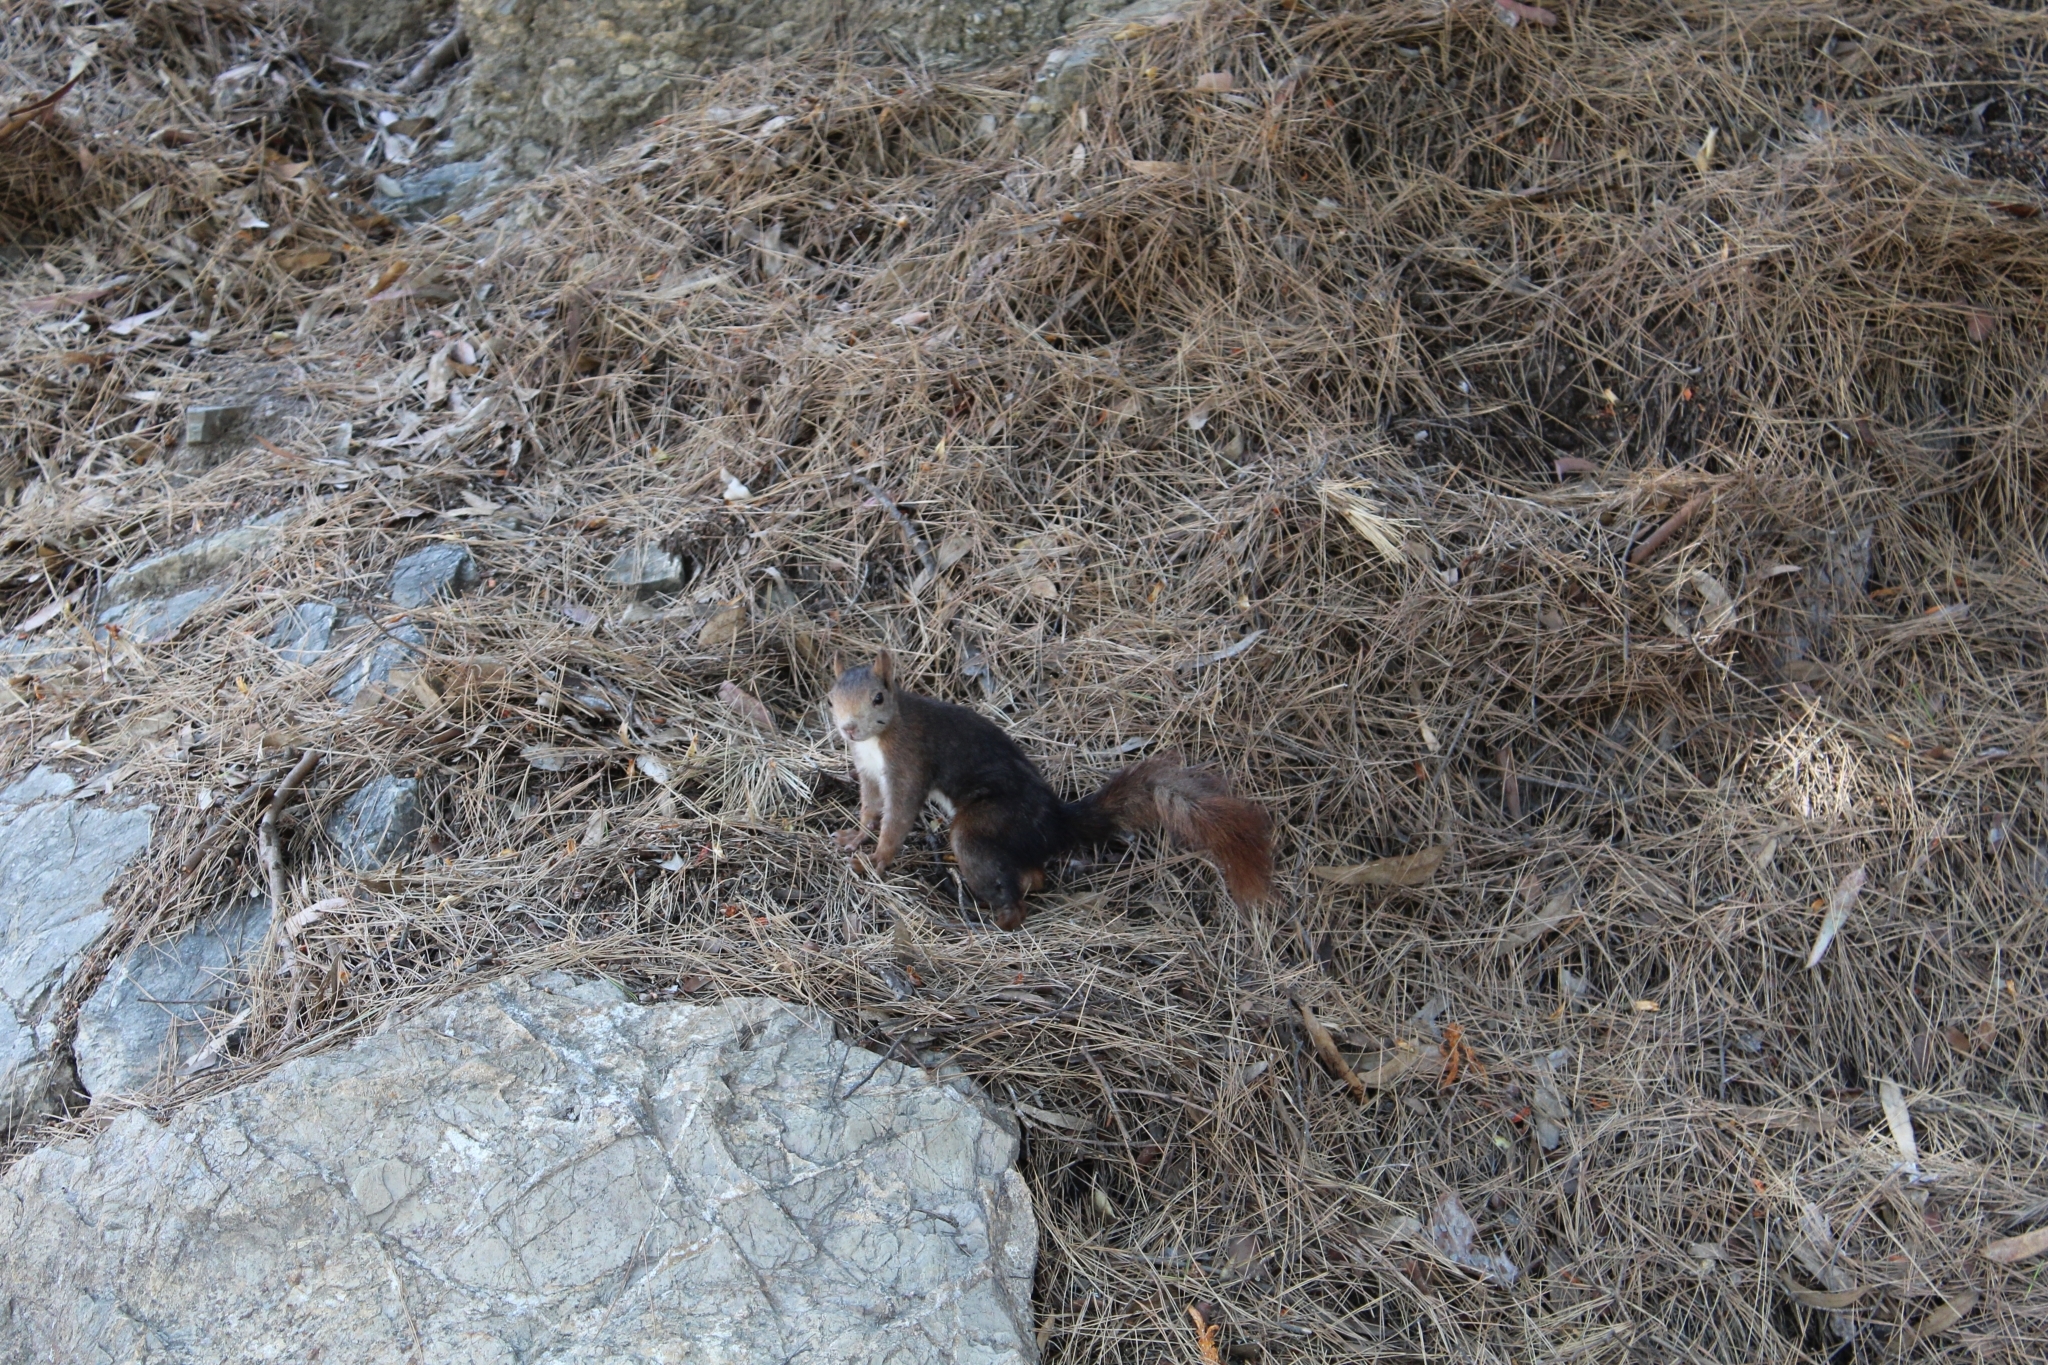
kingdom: Animalia
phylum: Chordata
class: Mammalia
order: Rodentia
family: Sciuridae
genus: Sciurus
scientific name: Sciurus vulgaris
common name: Eurasian red squirrel
